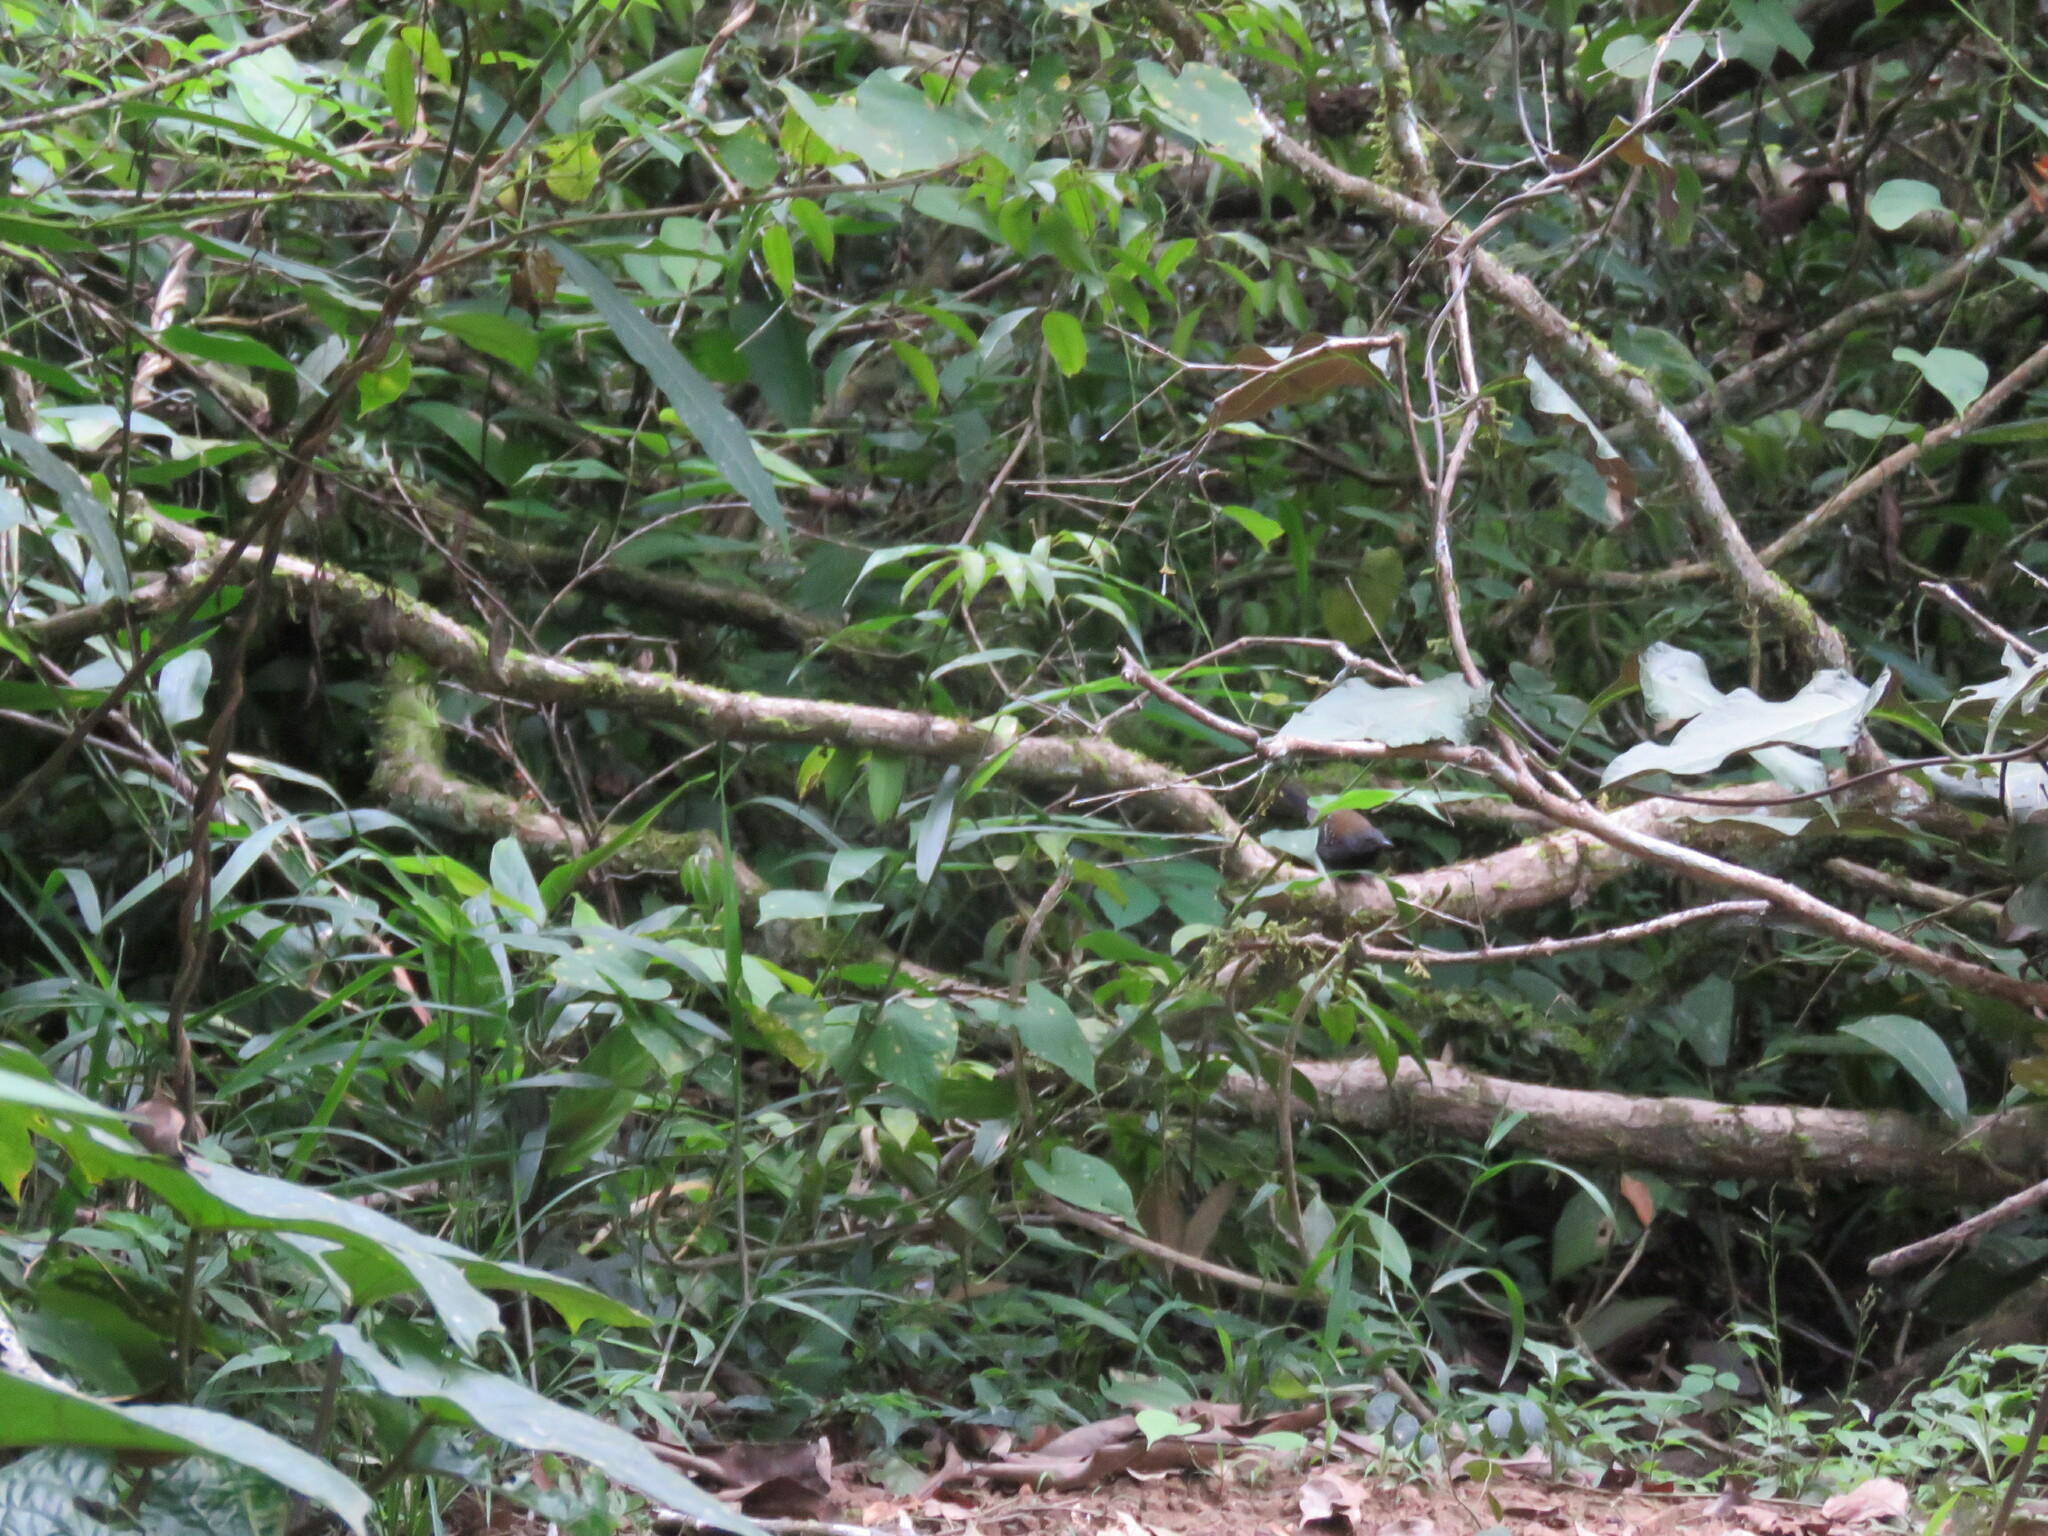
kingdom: Animalia
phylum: Chordata
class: Aves
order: Passeriformes
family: Thamnophilidae
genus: Myrmeciza
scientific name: Myrmeciza atrothorax
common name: Black-throated antbird
